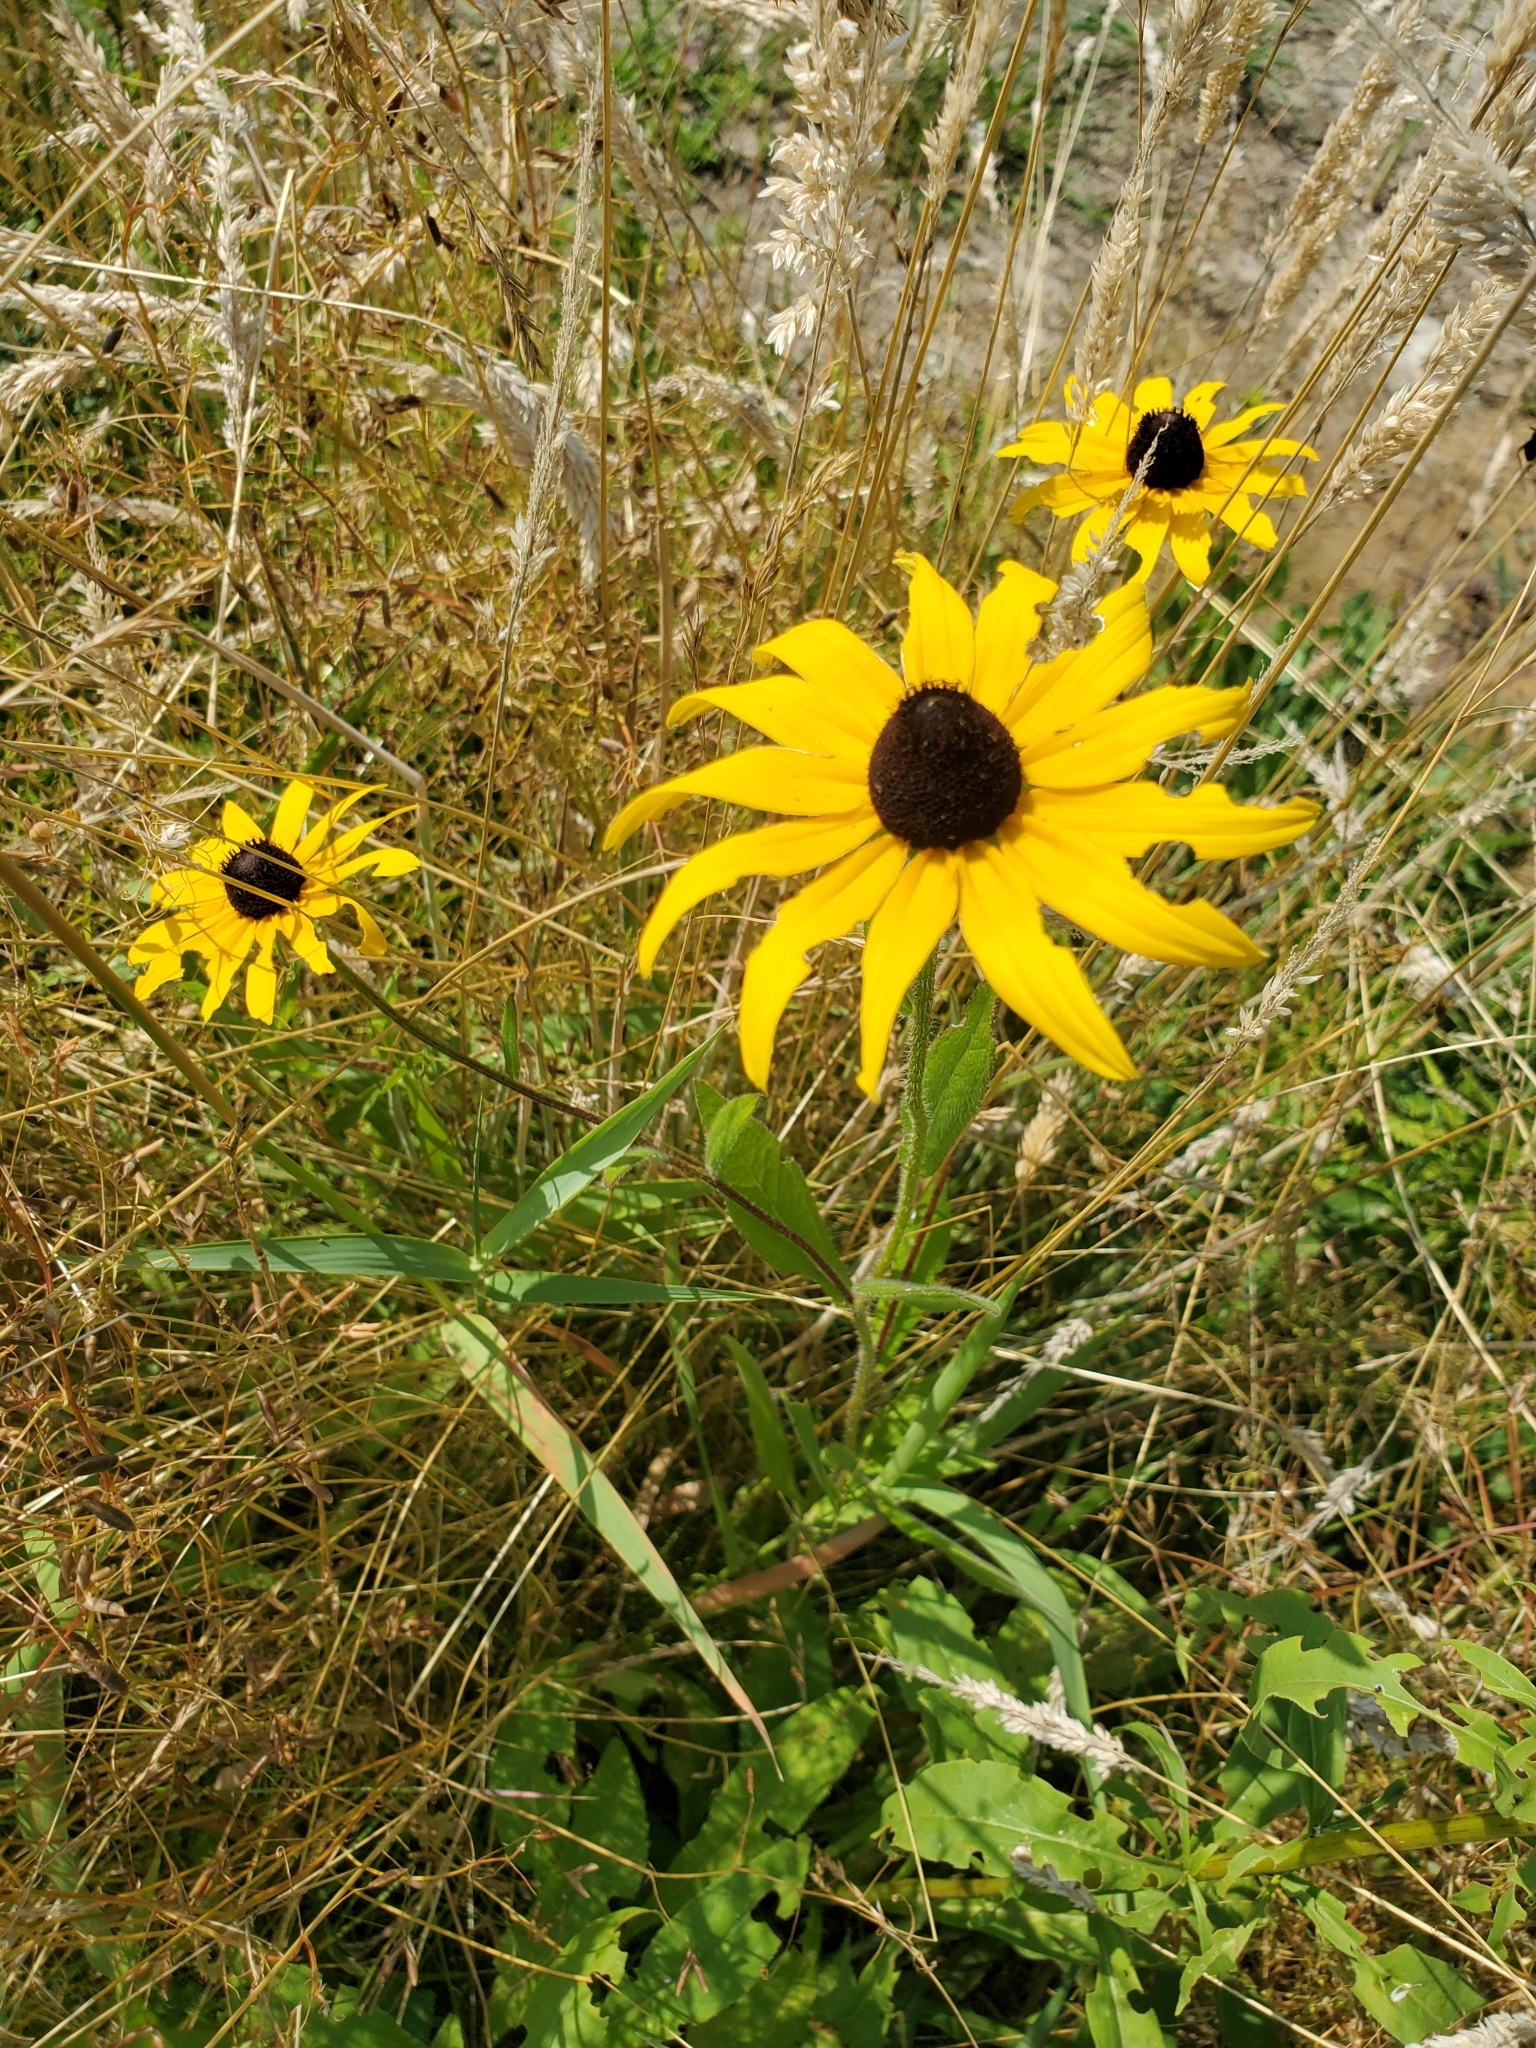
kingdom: Plantae
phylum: Tracheophyta
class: Magnoliopsida
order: Asterales
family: Asteraceae
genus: Rudbeckia
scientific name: Rudbeckia hirta
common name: Black-eyed-susan
